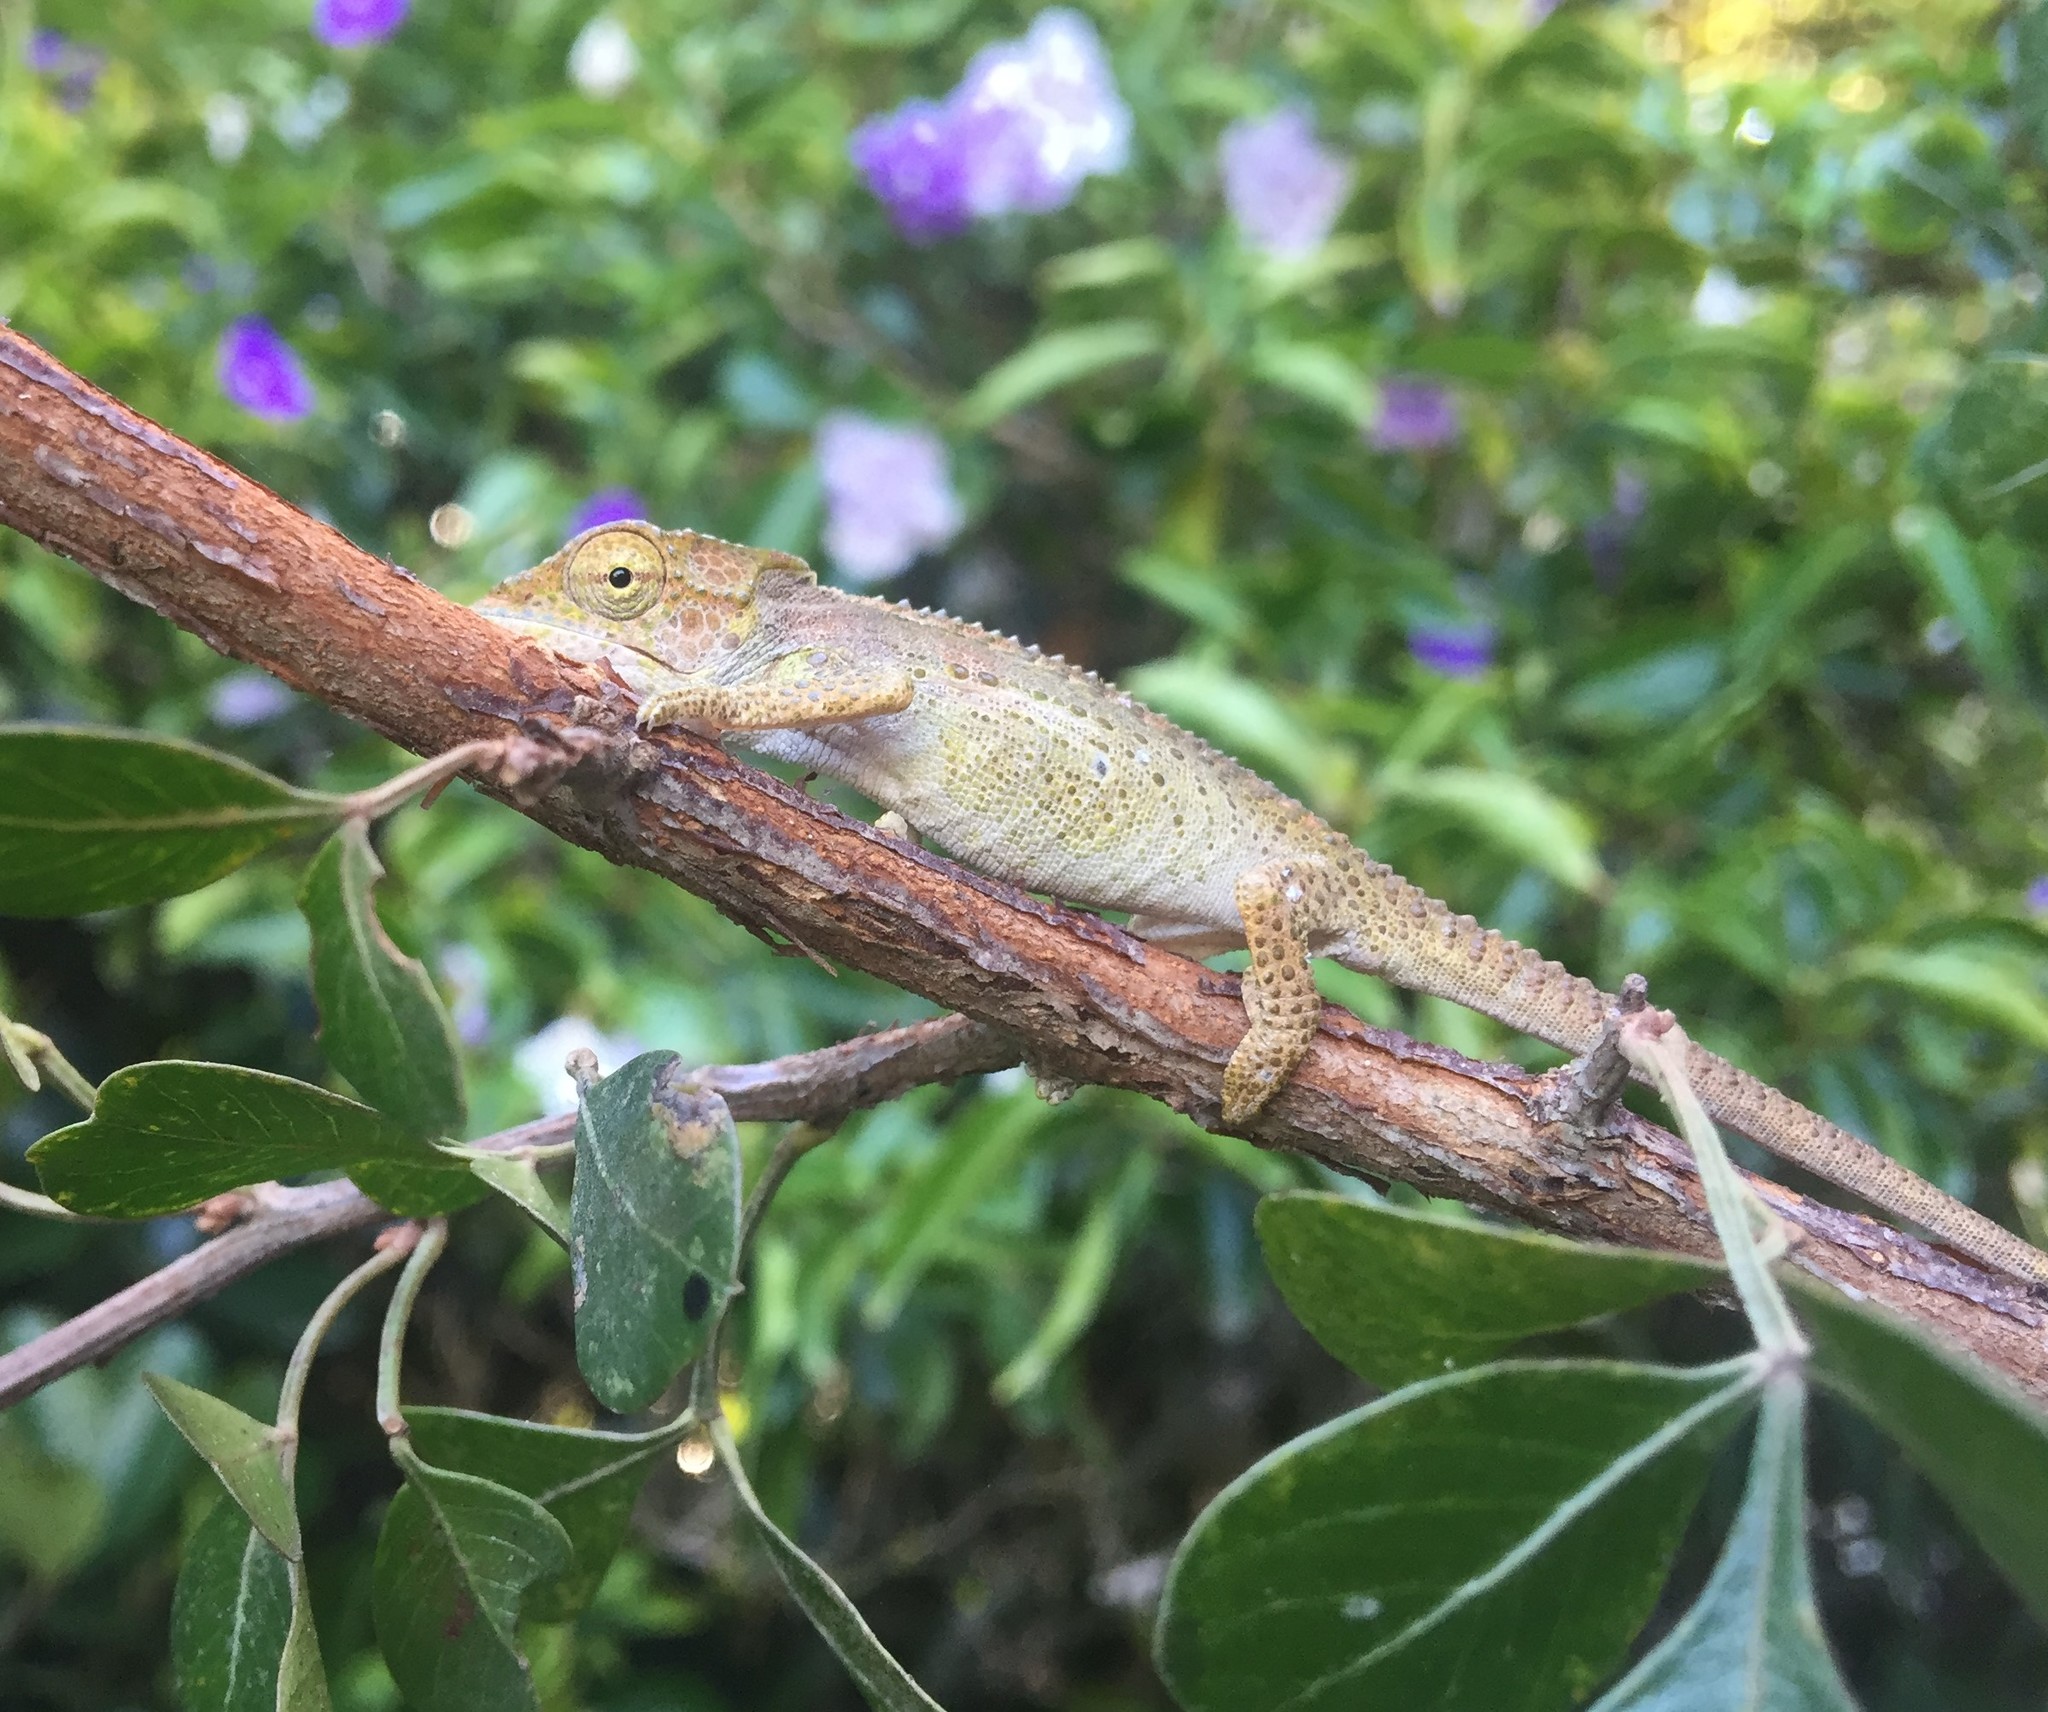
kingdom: Animalia
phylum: Chordata
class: Squamata
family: Chamaeleonidae
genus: Bradypodion
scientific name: Bradypodion damaranum
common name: Knysna dwarf chameleon
